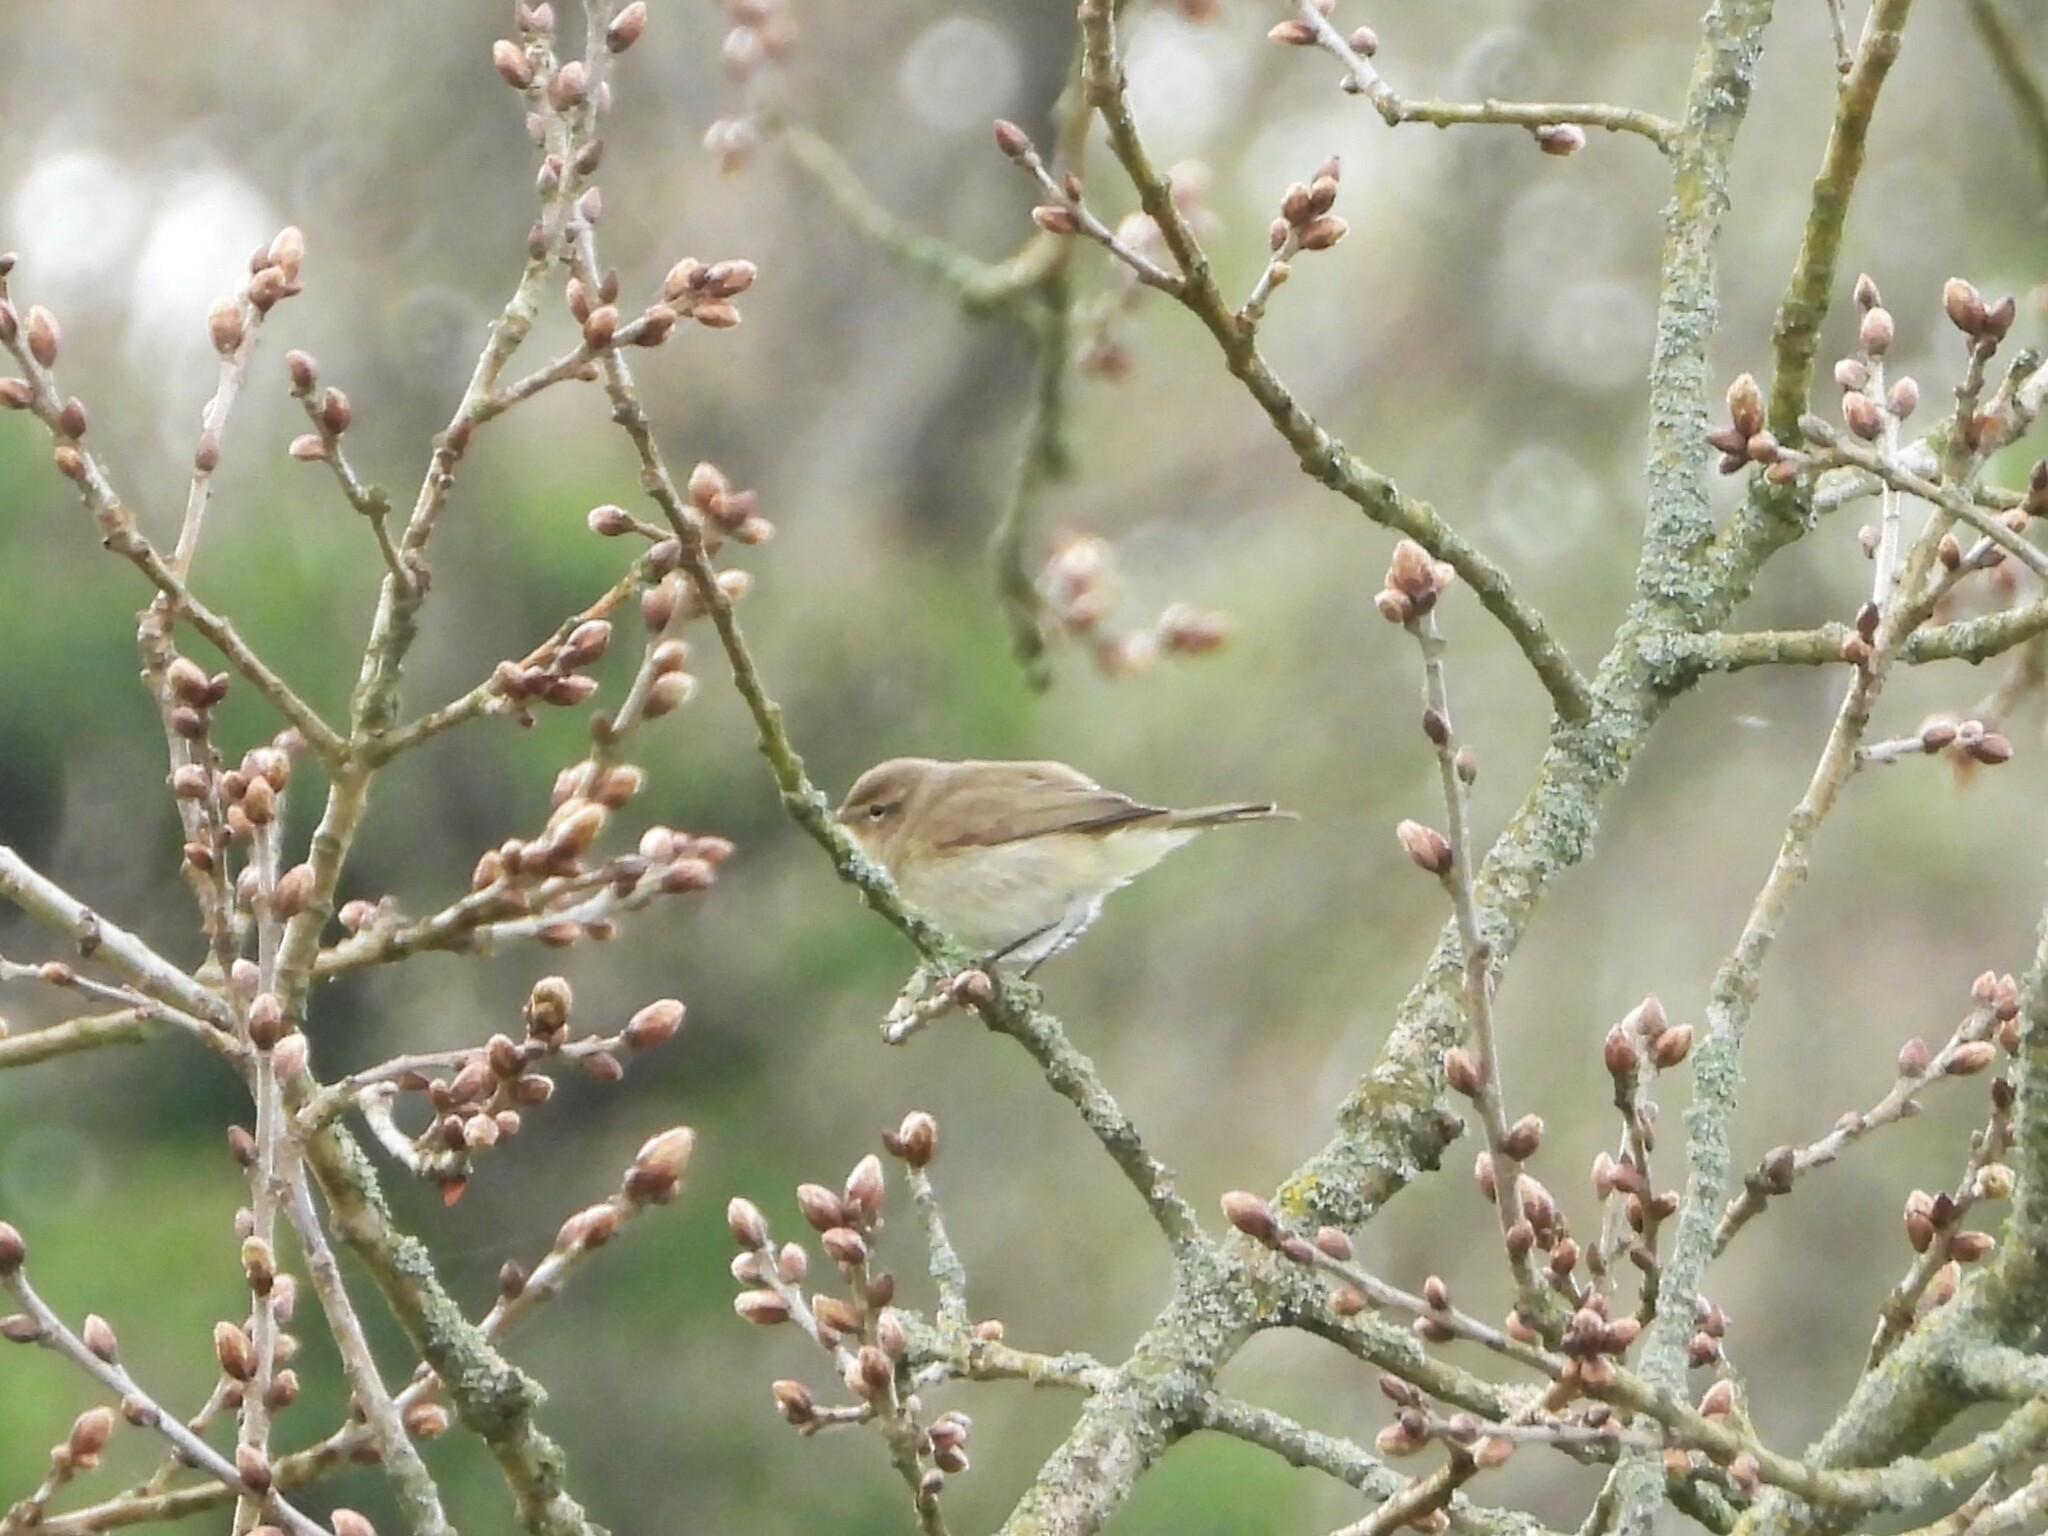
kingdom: Animalia
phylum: Chordata
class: Aves
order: Passeriformes
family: Phylloscopidae
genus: Phylloscopus
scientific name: Phylloscopus collybita
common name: Common chiffchaff
